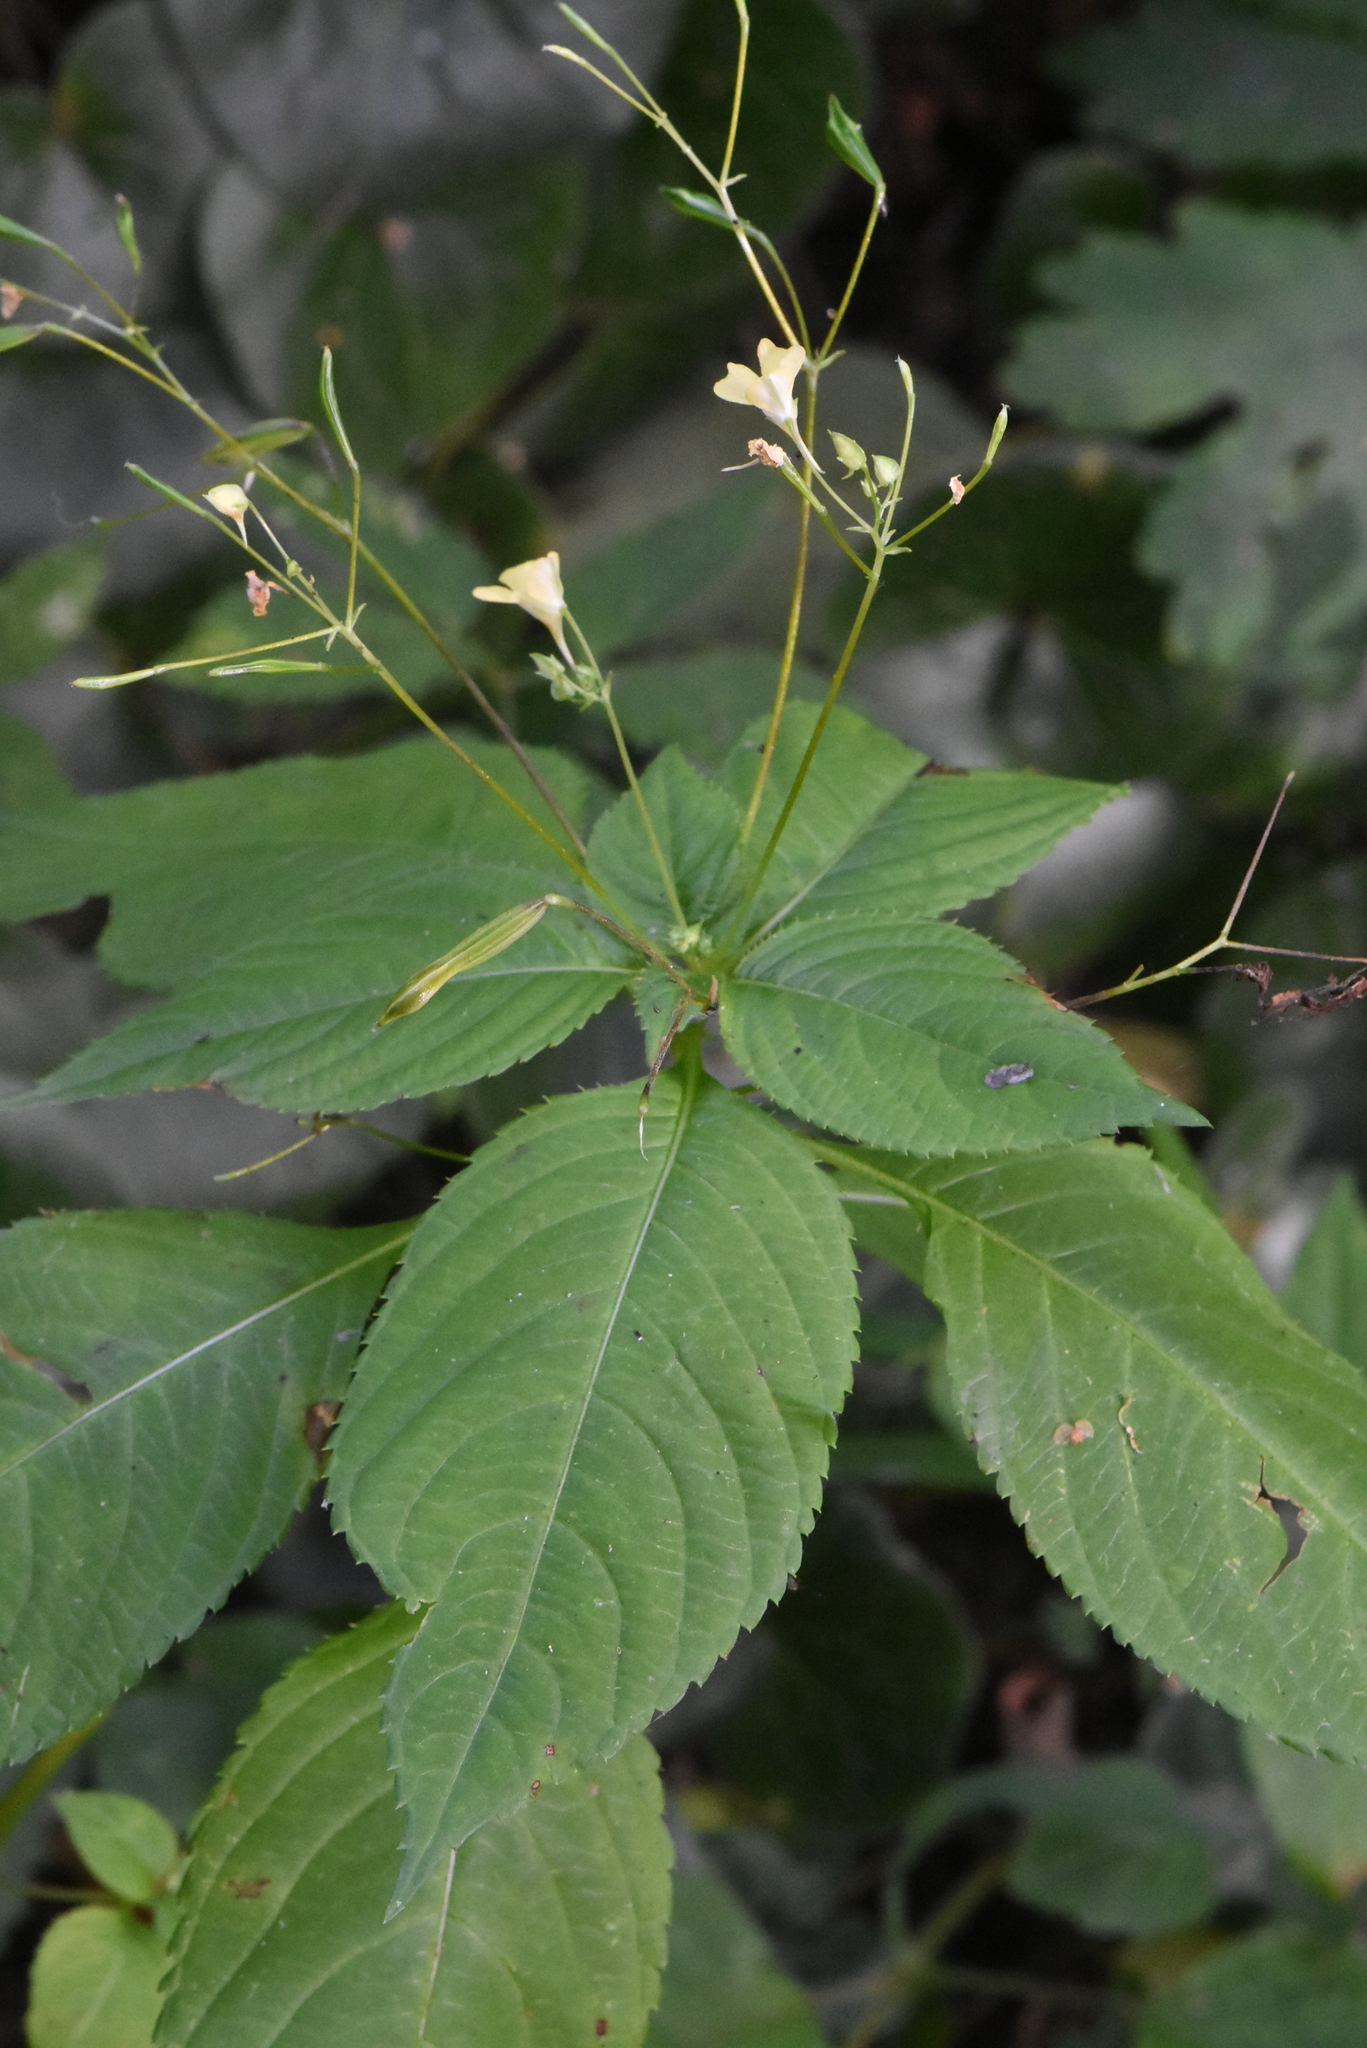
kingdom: Plantae
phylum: Tracheophyta
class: Magnoliopsida
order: Ericales
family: Balsaminaceae
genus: Impatiens
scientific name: Impatiens parviflora
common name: Small balsam
